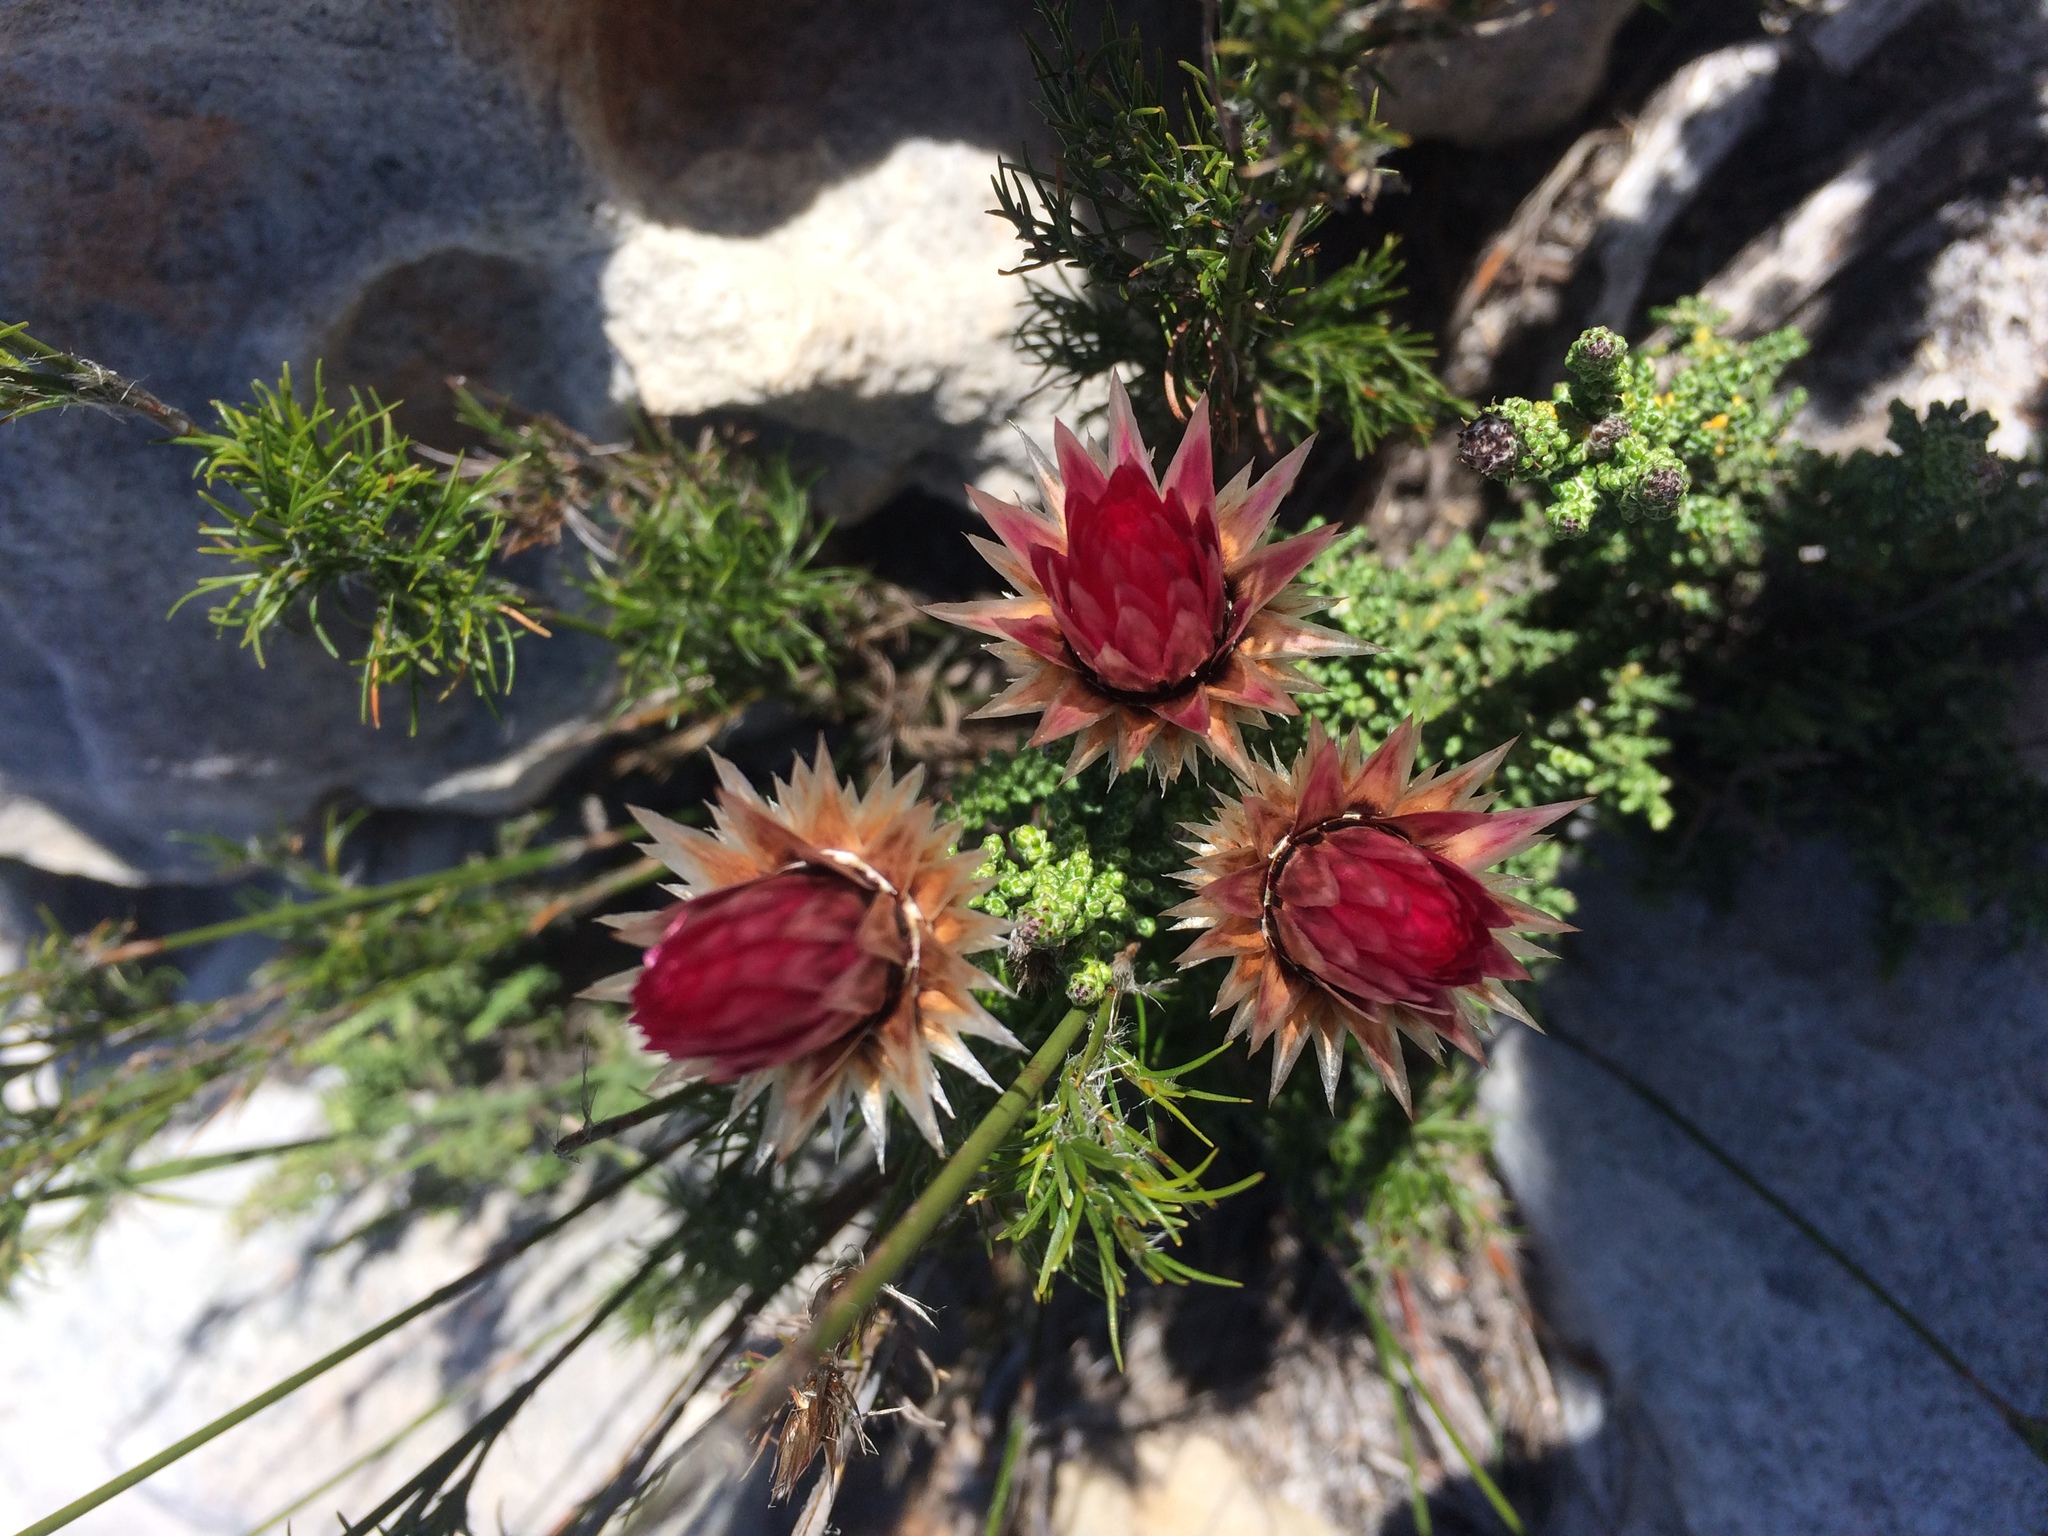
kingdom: Plantae
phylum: Tracheophyta
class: Magnoliopsida
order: Asterales
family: Asteraceae
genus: Phaenocoma
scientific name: Phaenocoma prolifera
